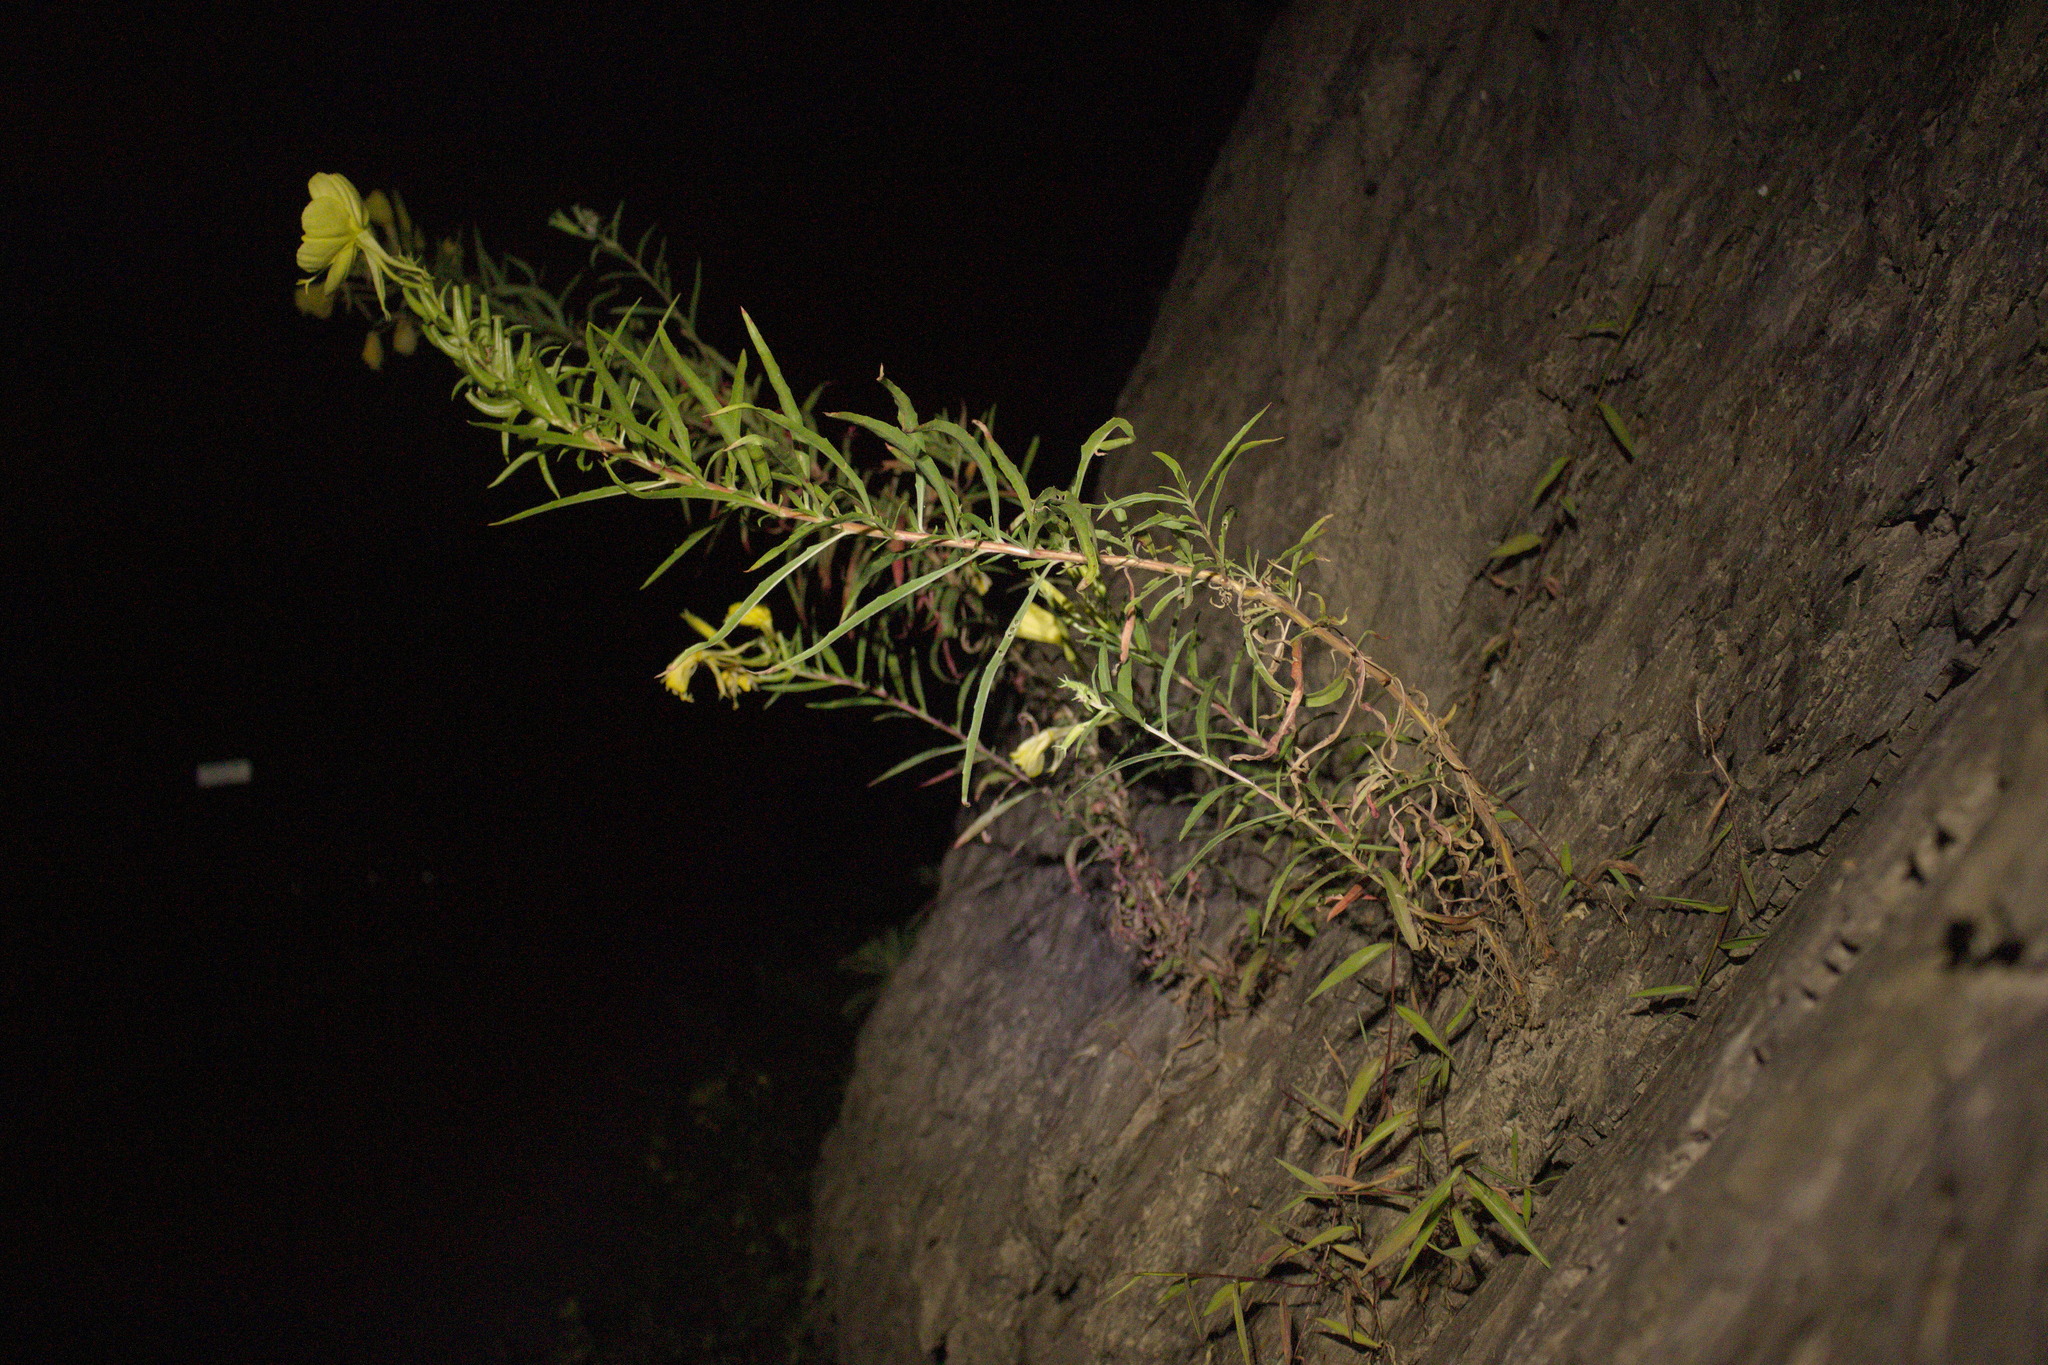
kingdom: Plantae
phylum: Tracheophyta
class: Magnoliopsida
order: Myrtales
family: Onagraceae
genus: Oenothera
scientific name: Oenothera argillicola
